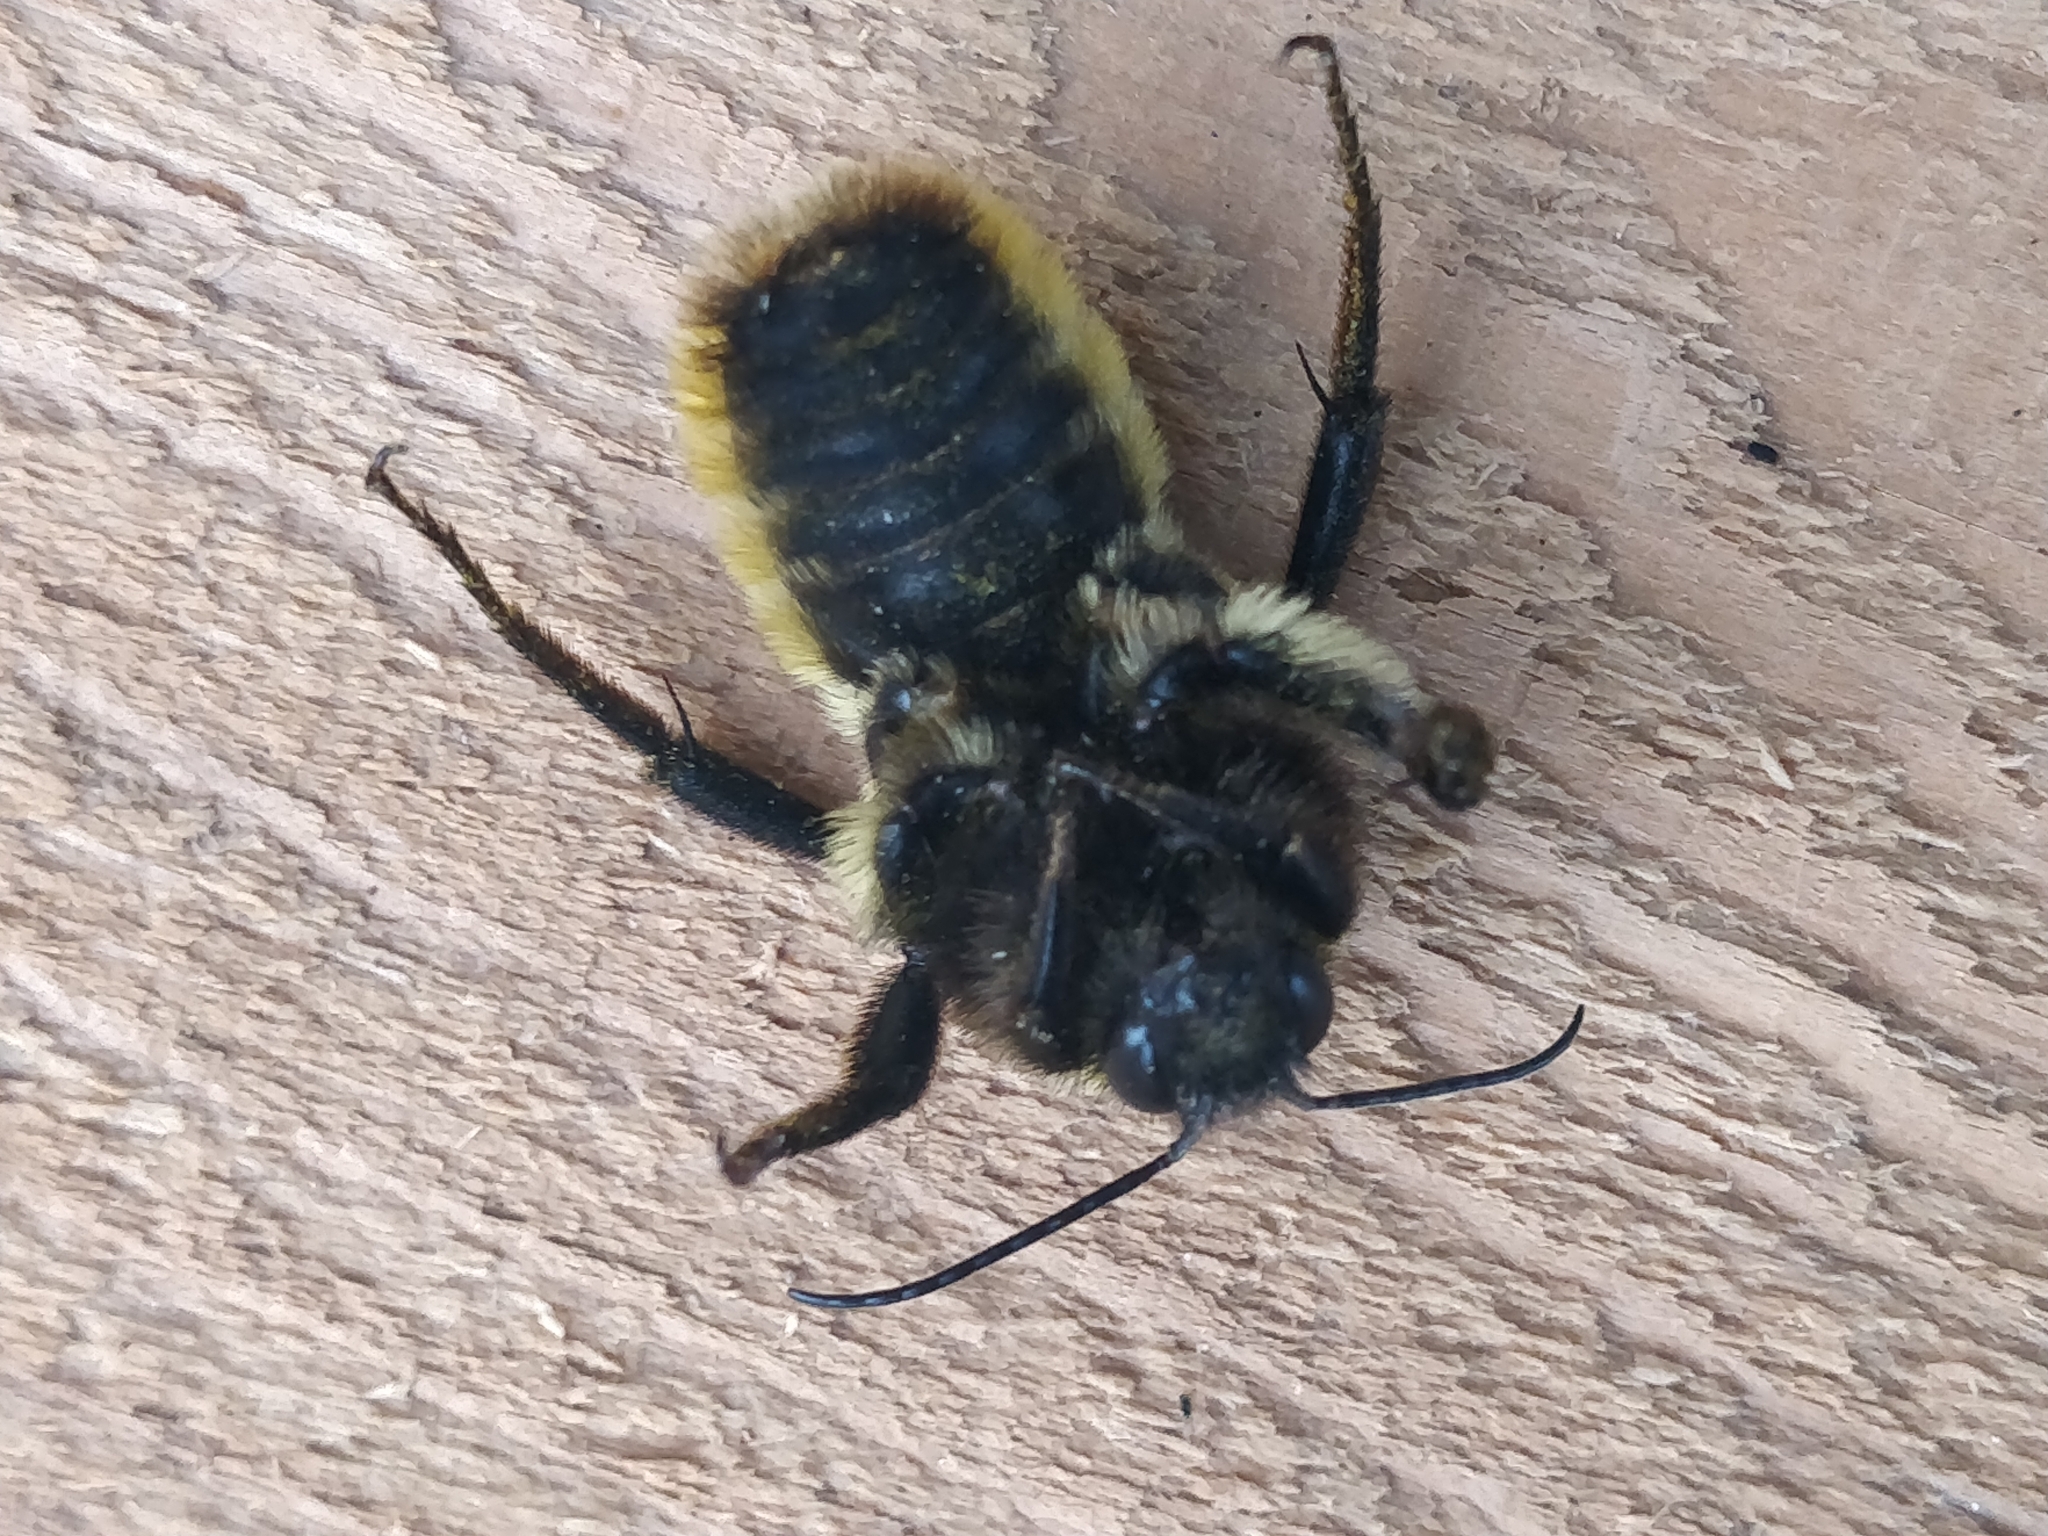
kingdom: Animalia
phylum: Arthropoda
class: Insecta
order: Hymenoptera
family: Apidae
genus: Bombus
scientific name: Bombus pensylvanicus
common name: Bumble bee
